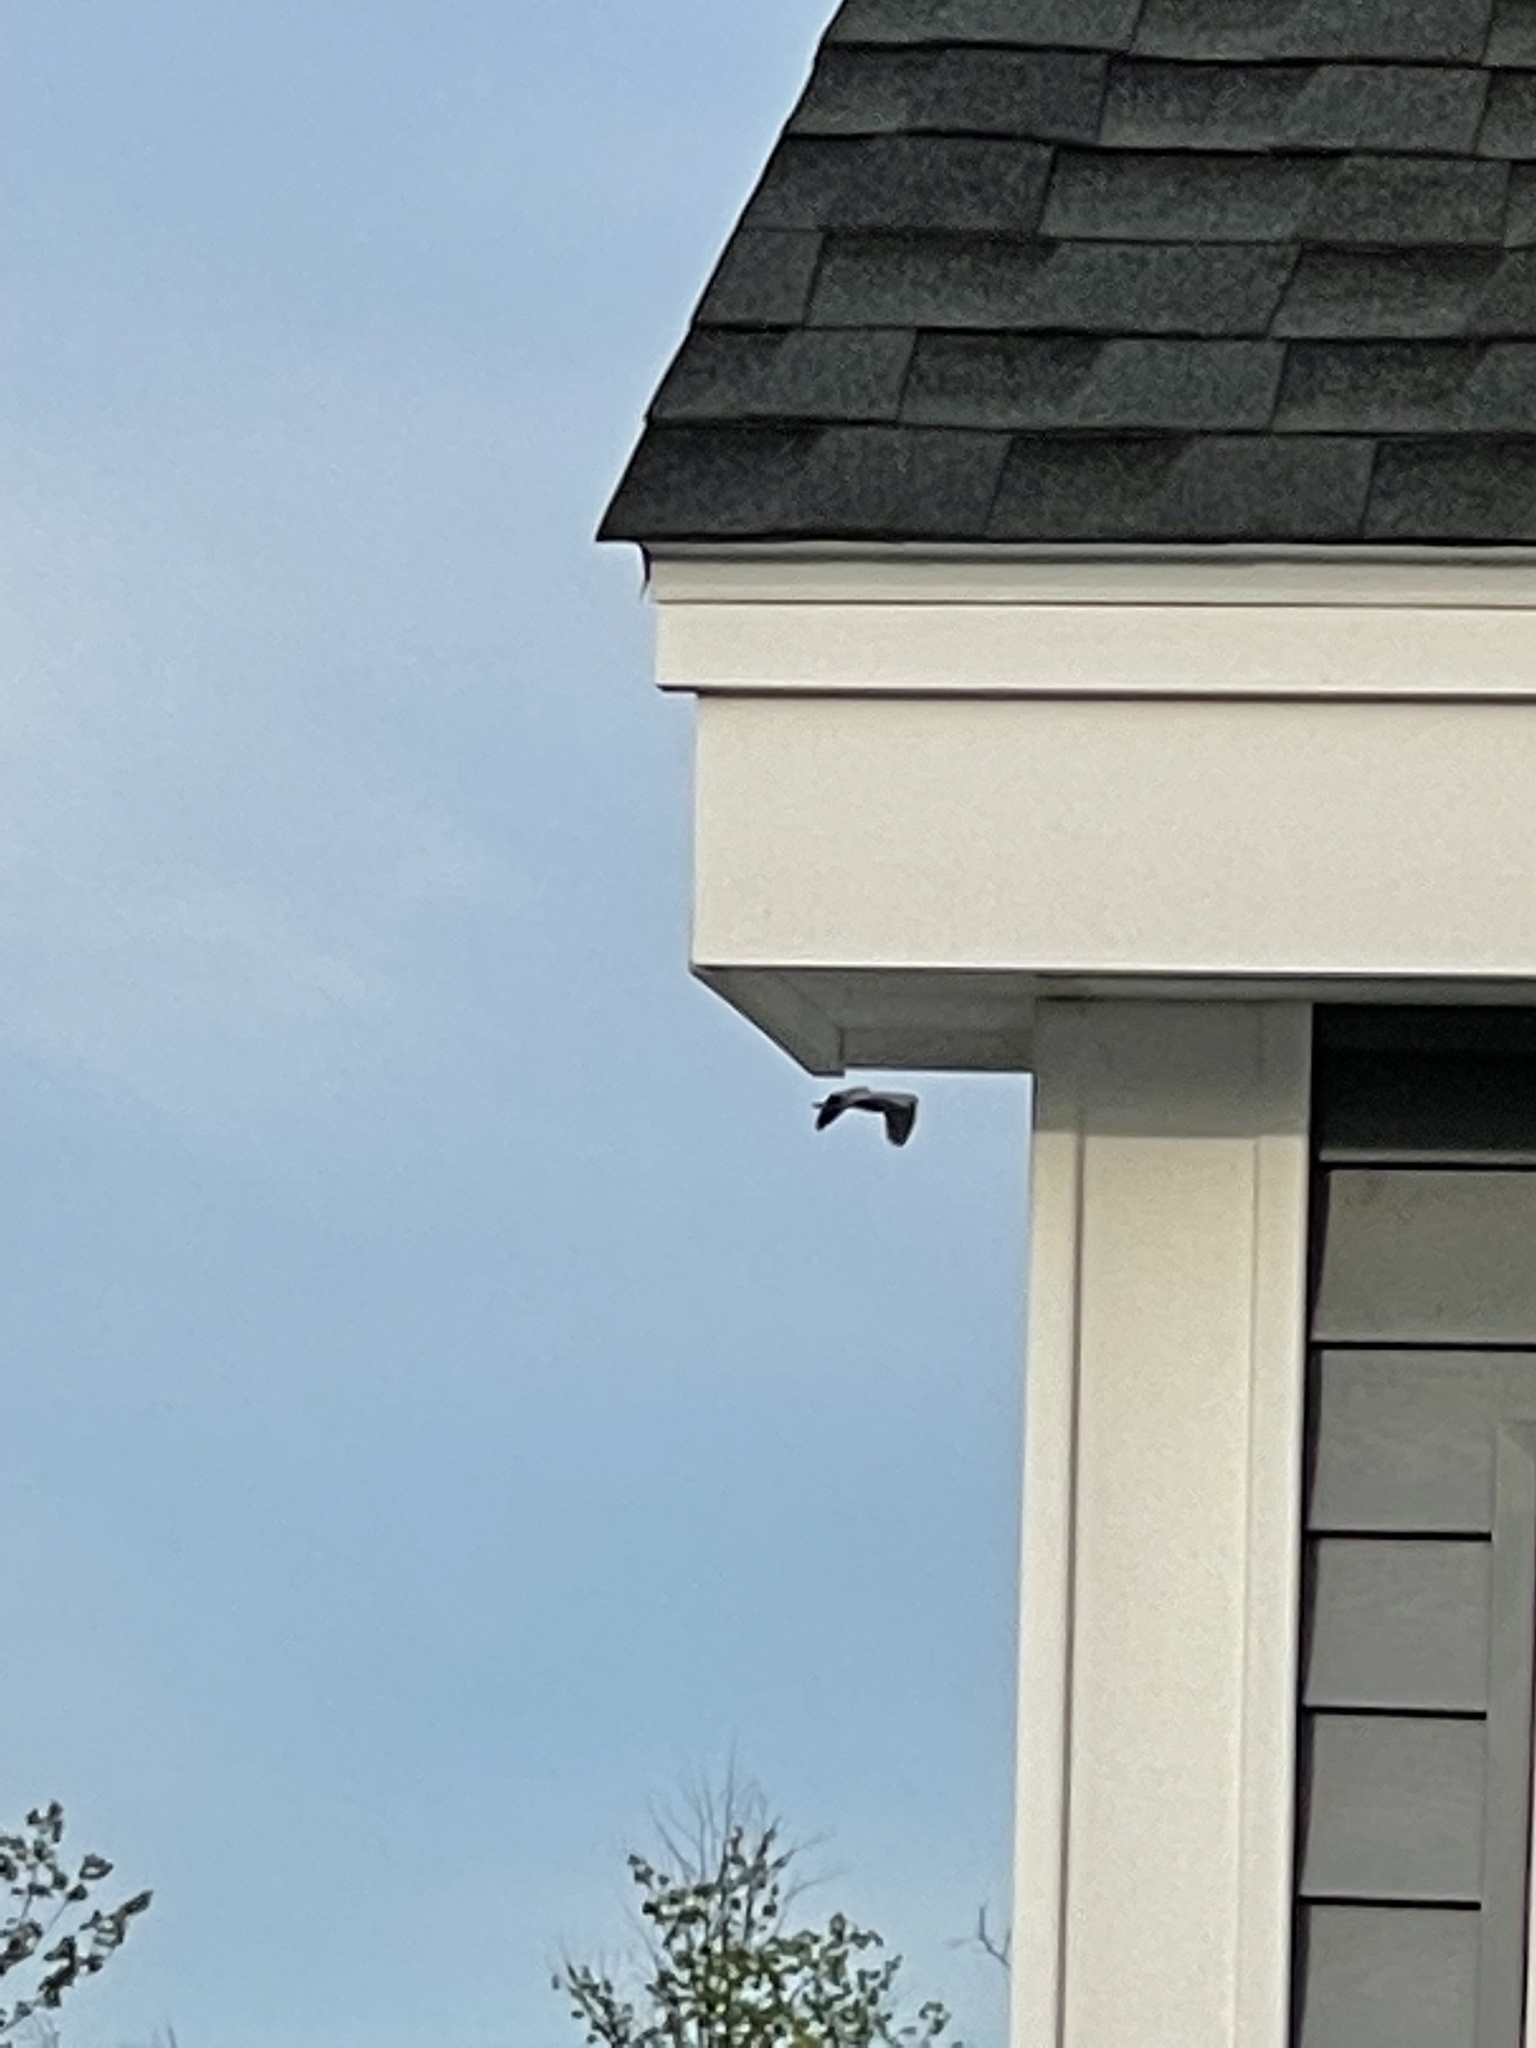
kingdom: Animalia
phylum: Chordata
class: Aves
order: Pelecaniformes
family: Ardeidae
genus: Ardea
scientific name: Ardea herodias
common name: Great blue heron
